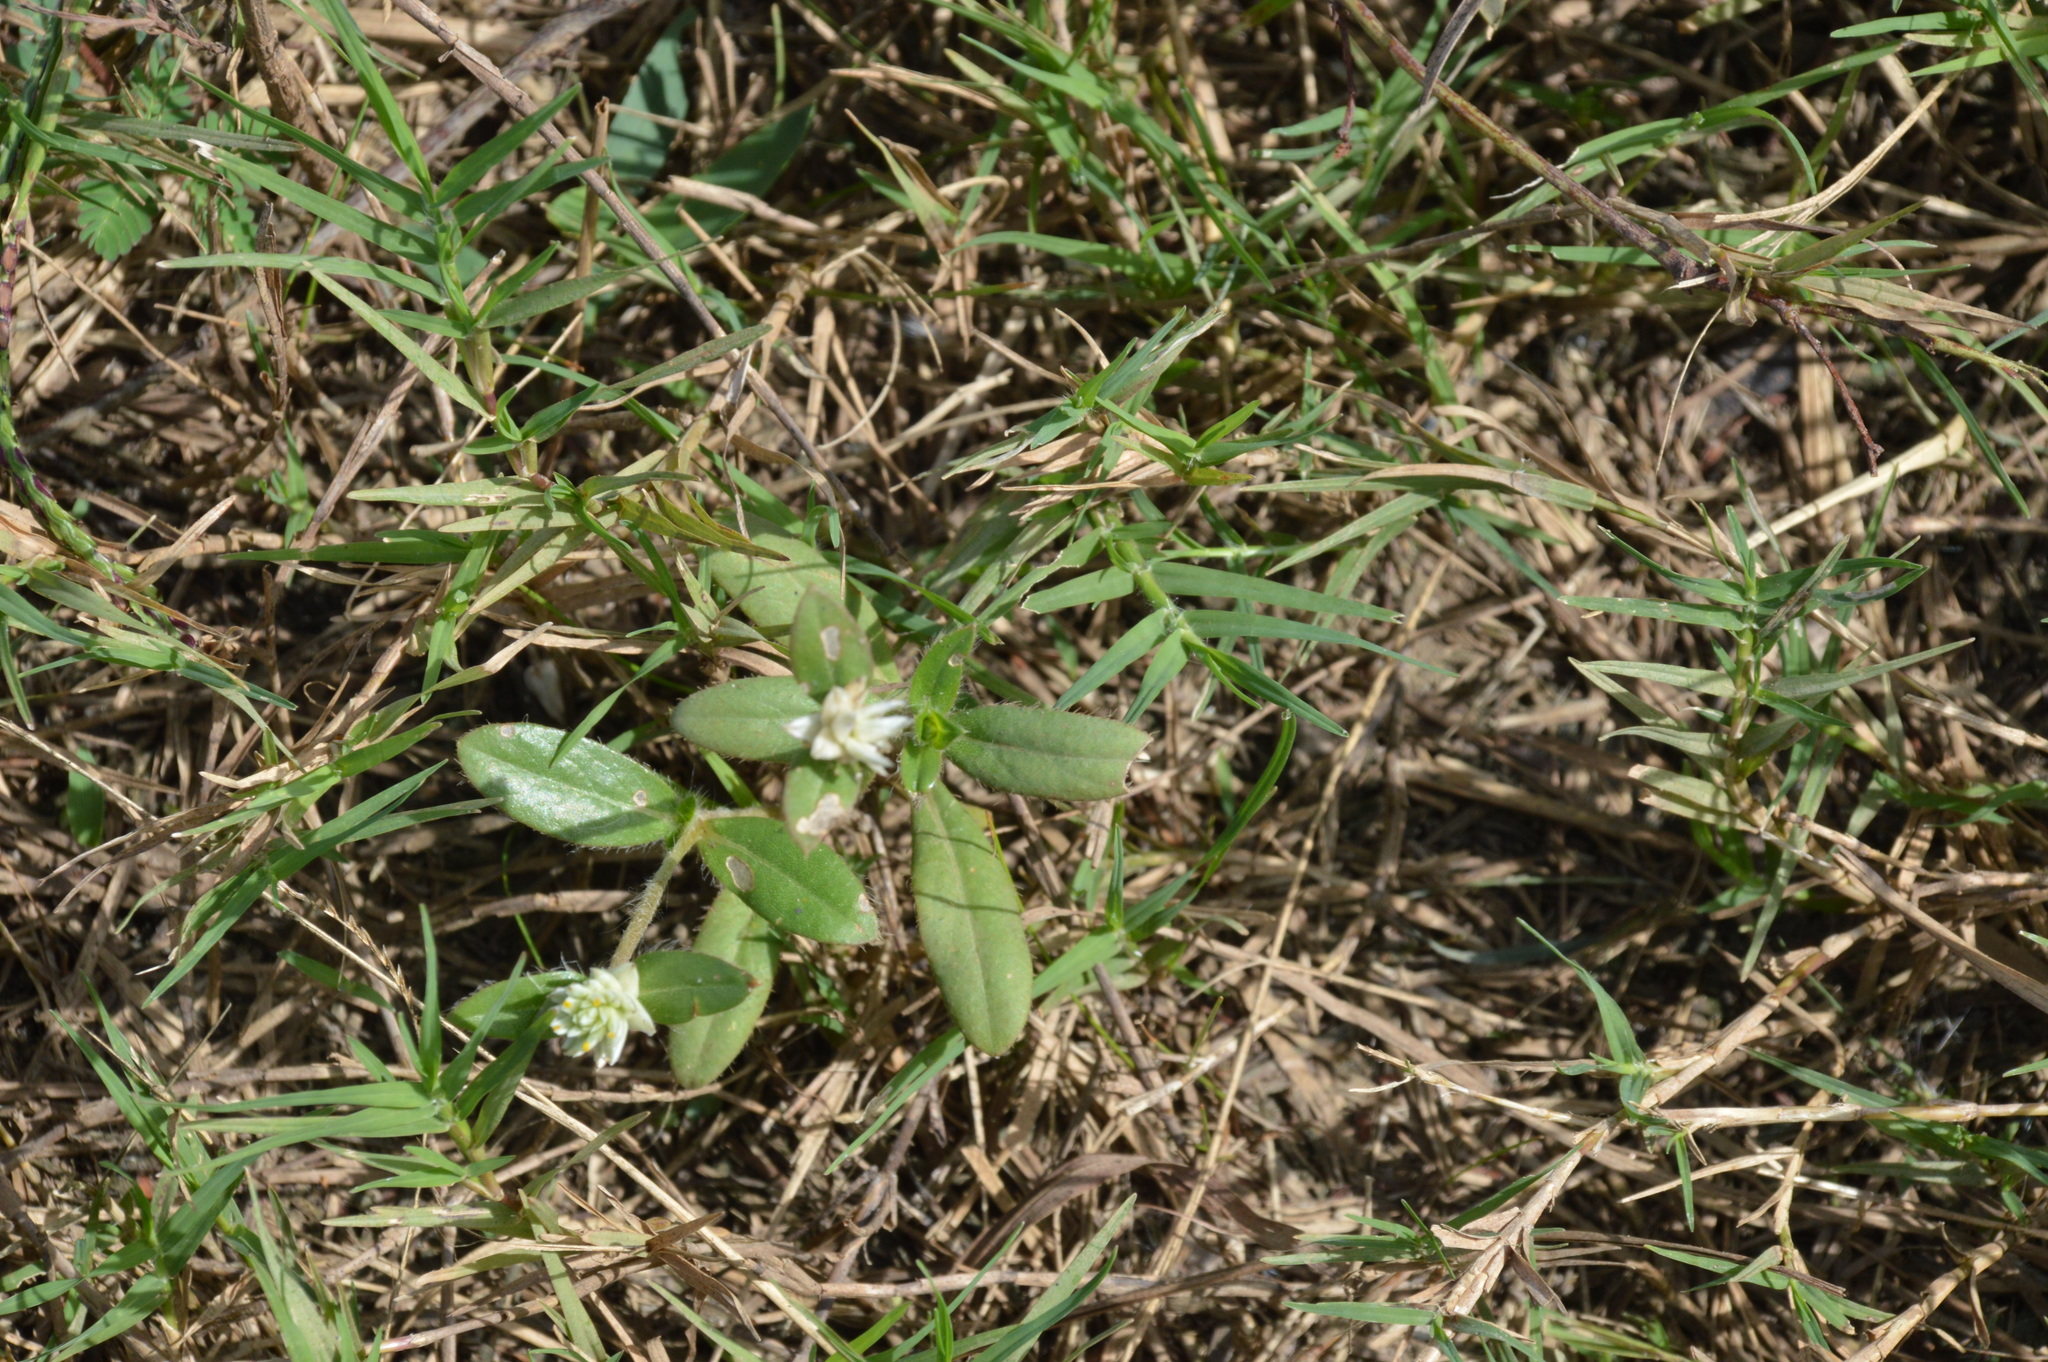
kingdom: Plantae
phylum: Tracheophyta
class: Magnoliopsida
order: Caryophyllales
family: Amaranthaceae
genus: Gomphrena
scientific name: Gomphrena serrata
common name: Arrasa con todo
